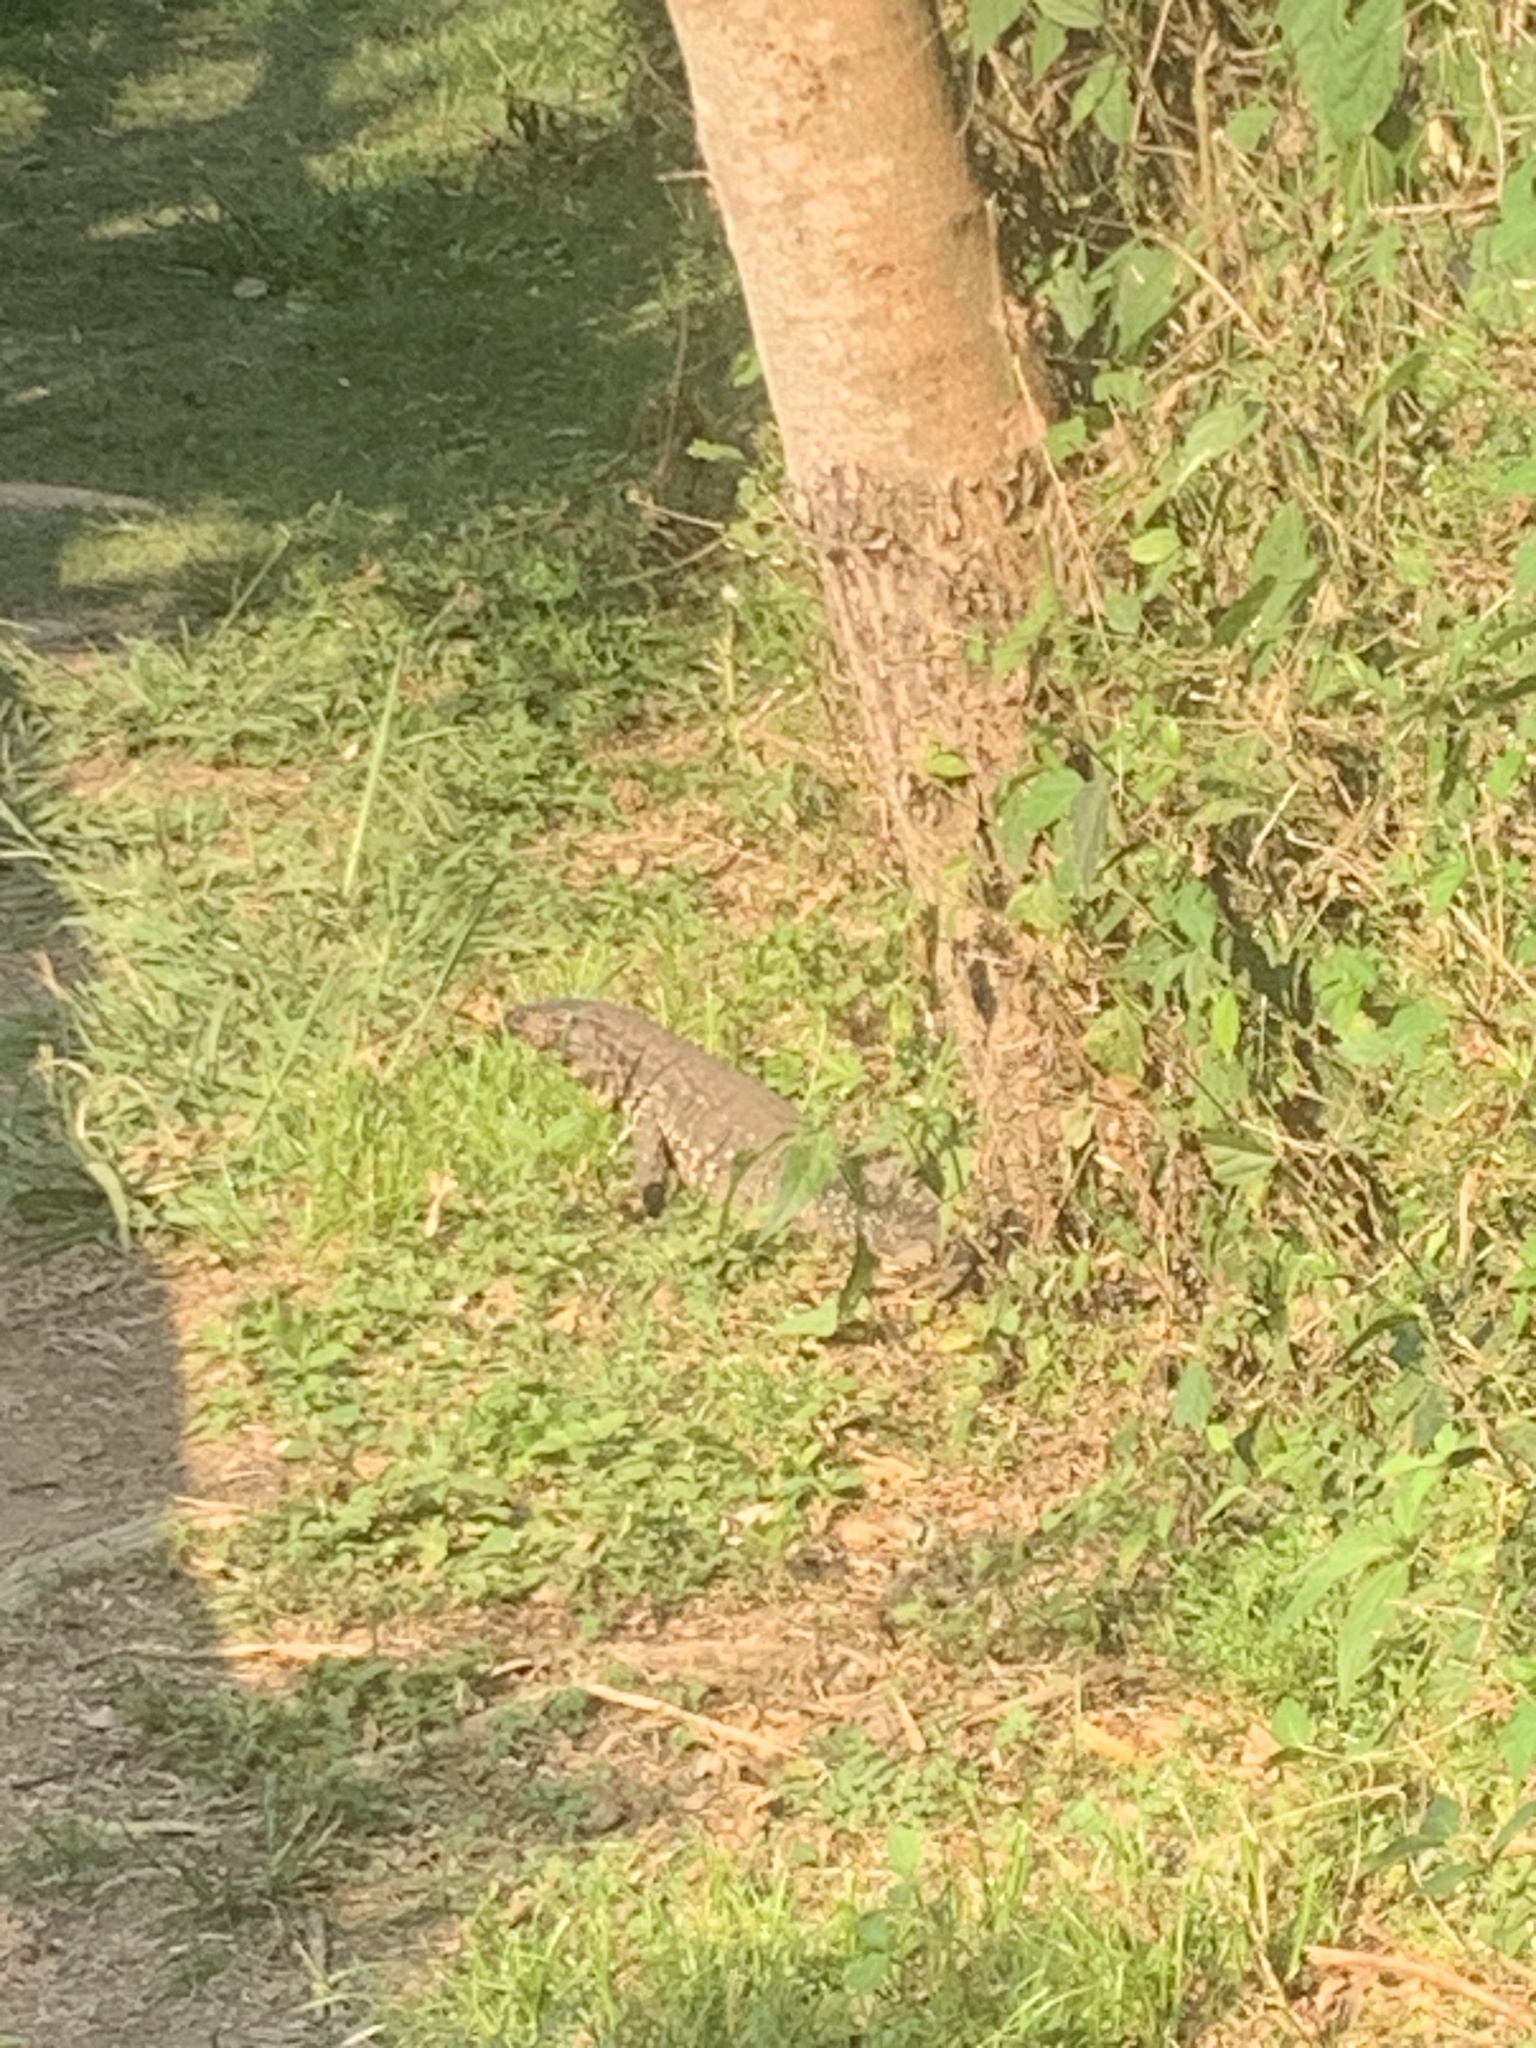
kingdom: Animalia
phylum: Chordata
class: Squamata
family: Teiidae
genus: Salvator
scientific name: Salvator merianae
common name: Argentine black and white tegu
